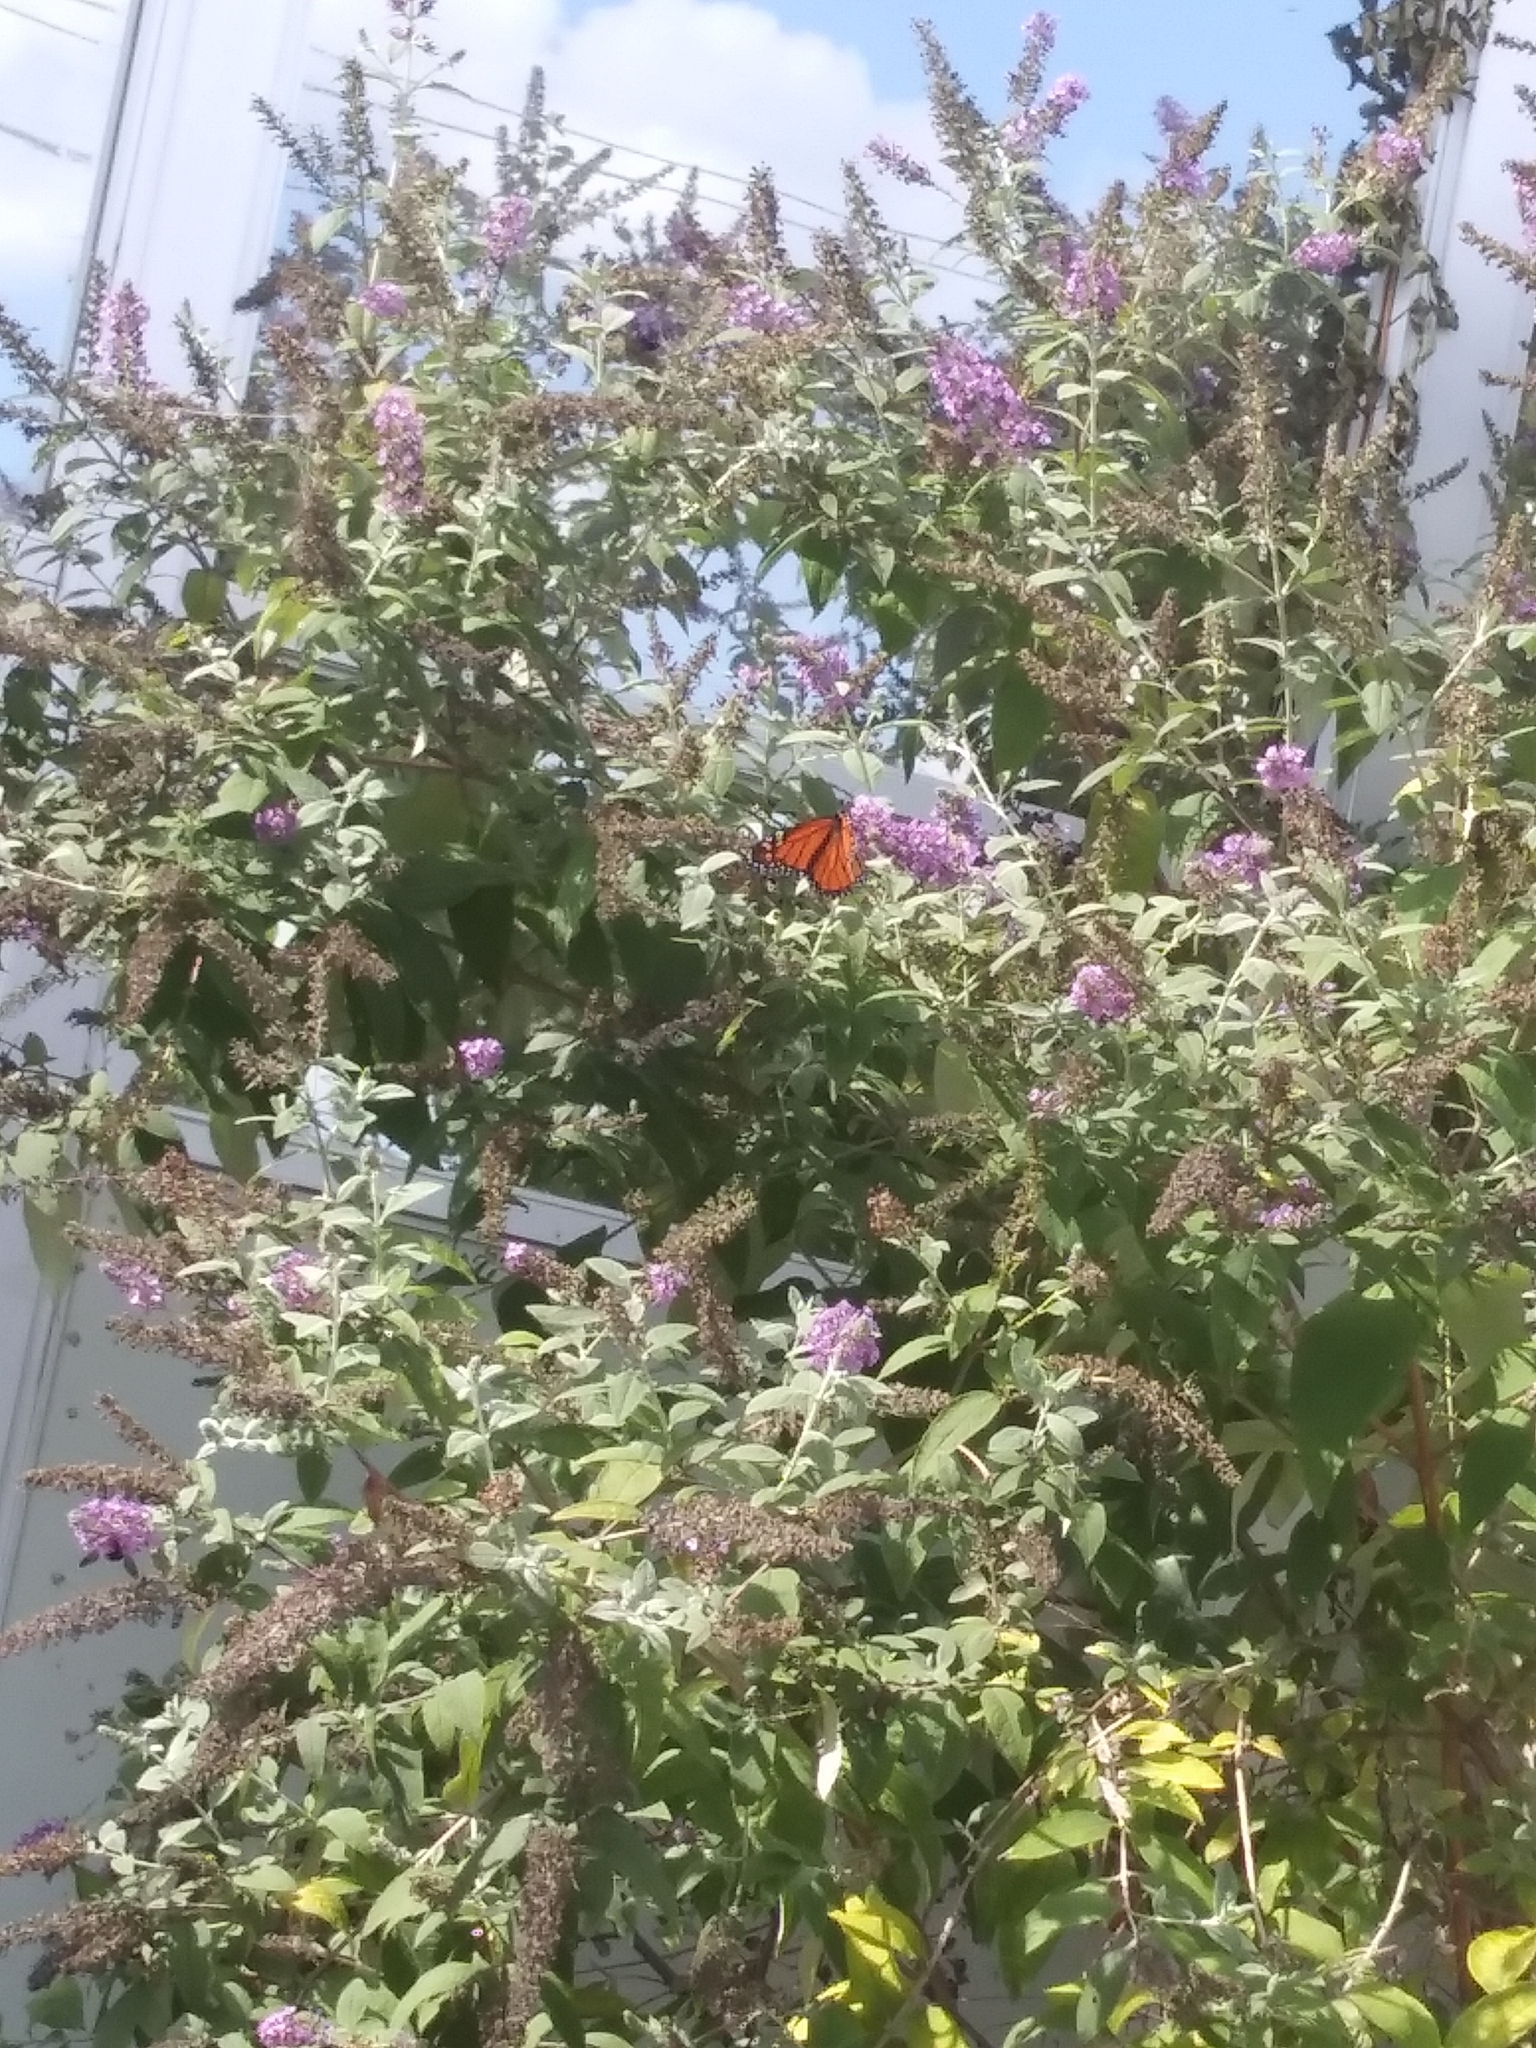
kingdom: Animalia
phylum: Arthropoda
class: Insecta
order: Lepidoptera
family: Nymphalidae
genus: Danaus
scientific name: Danaus plexippus
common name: Monarch
